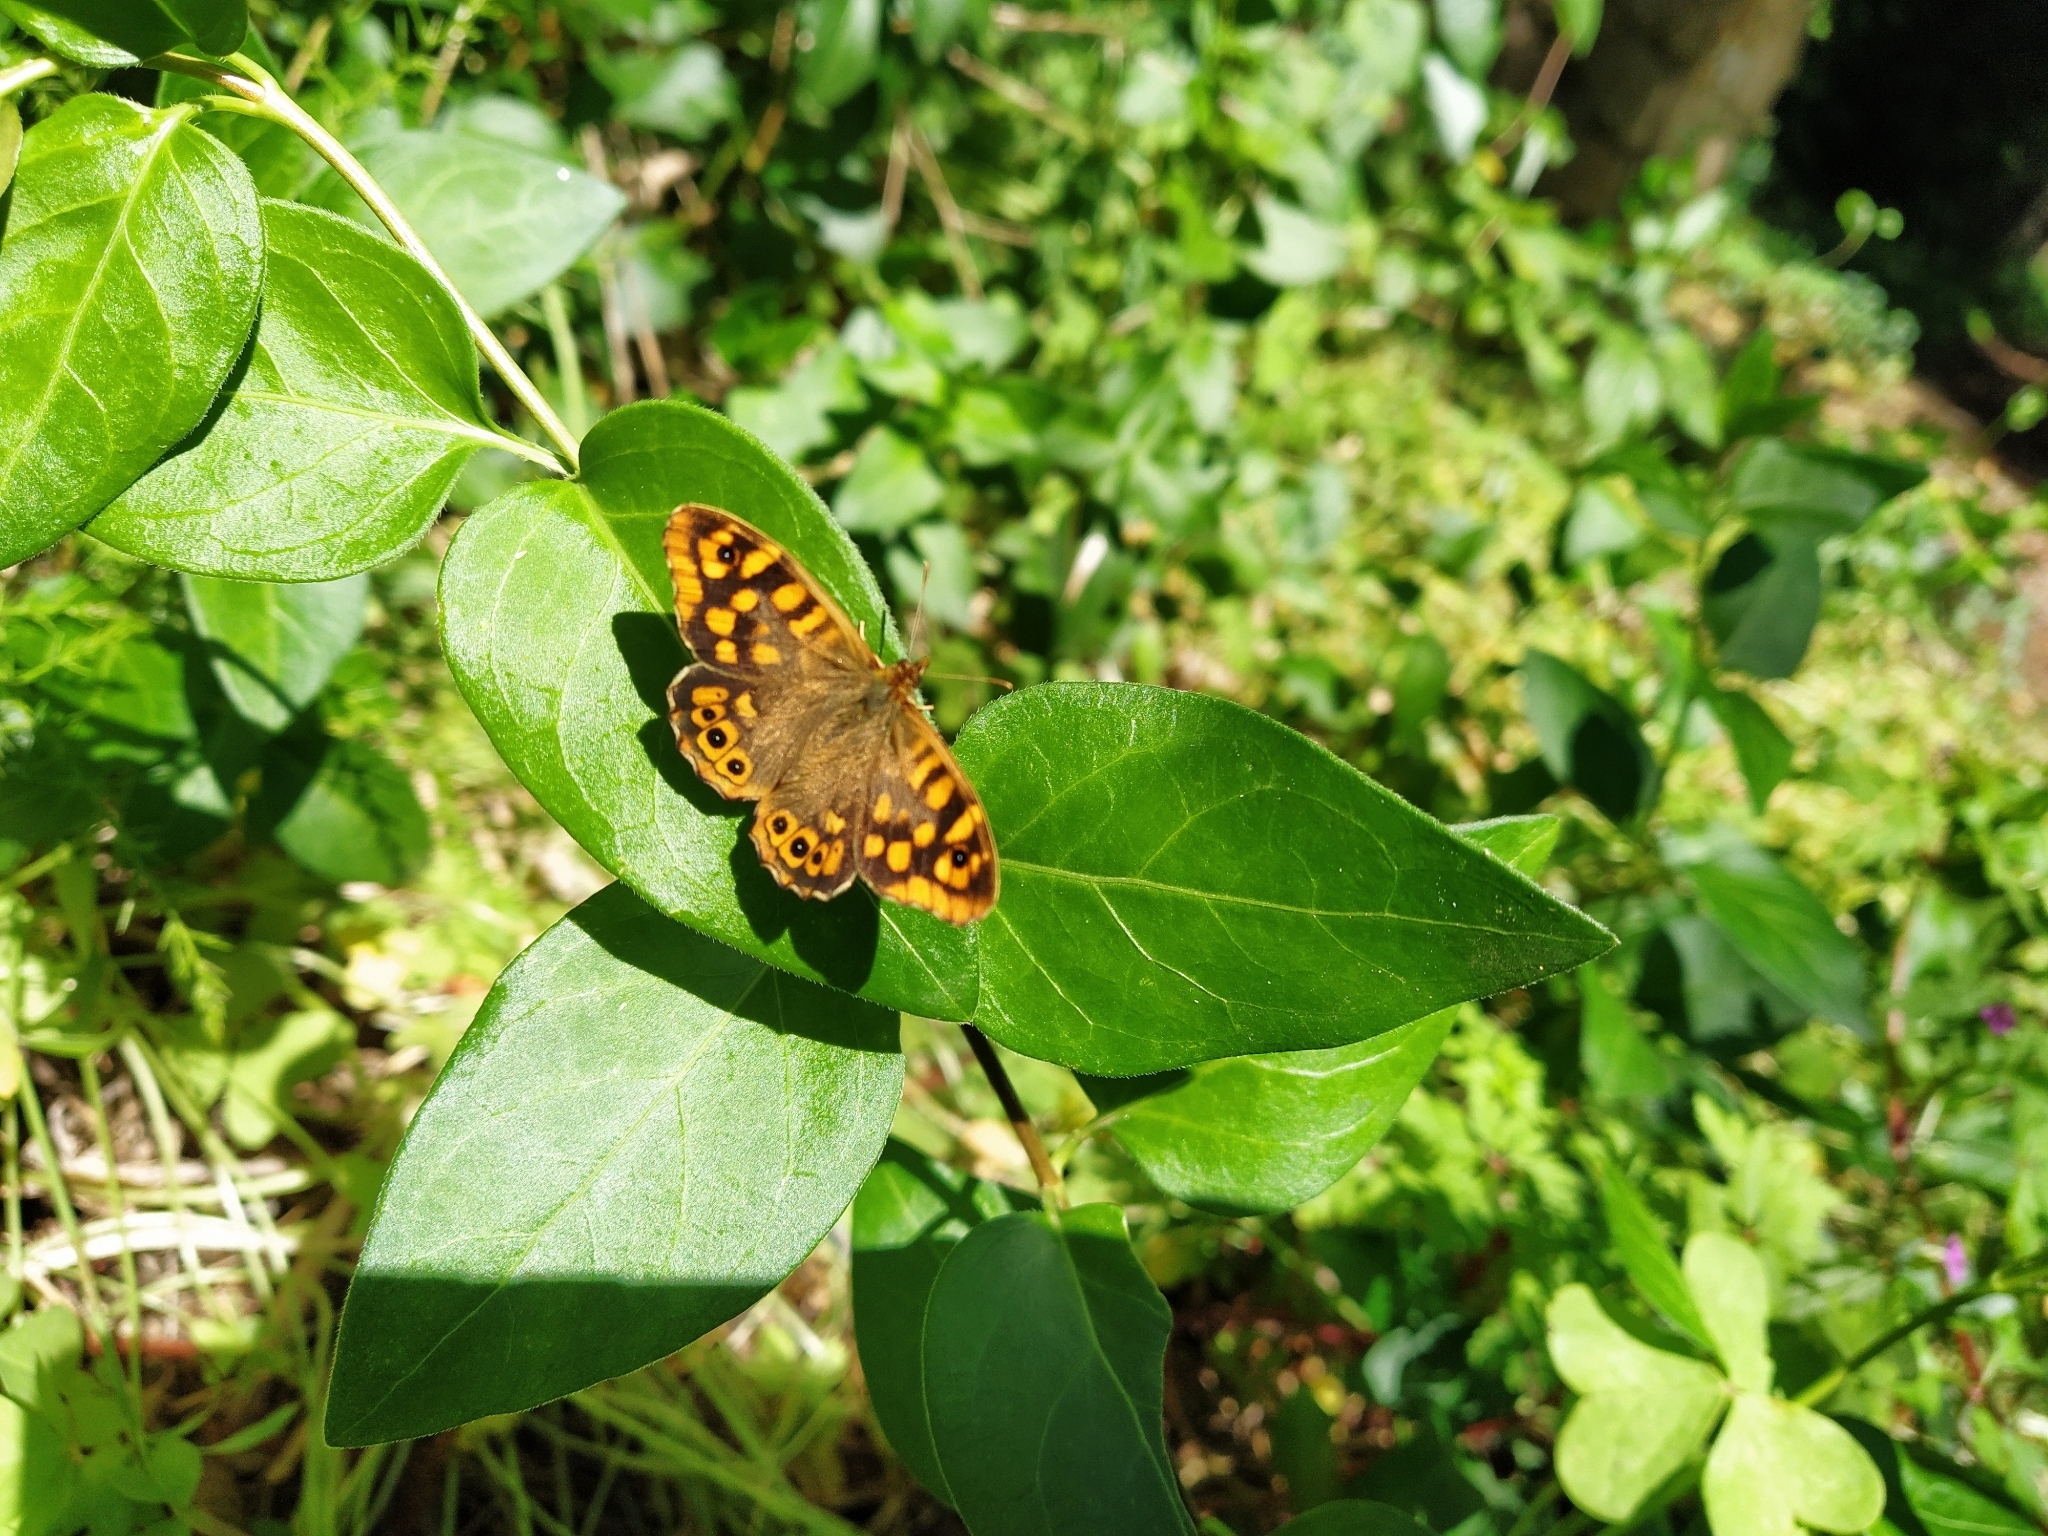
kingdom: Animalia
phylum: Arthropoda
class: Insecta
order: Lepidoptera
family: Nymphalidae
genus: Pararge
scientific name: Pararge aegeria
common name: Speckled wood
